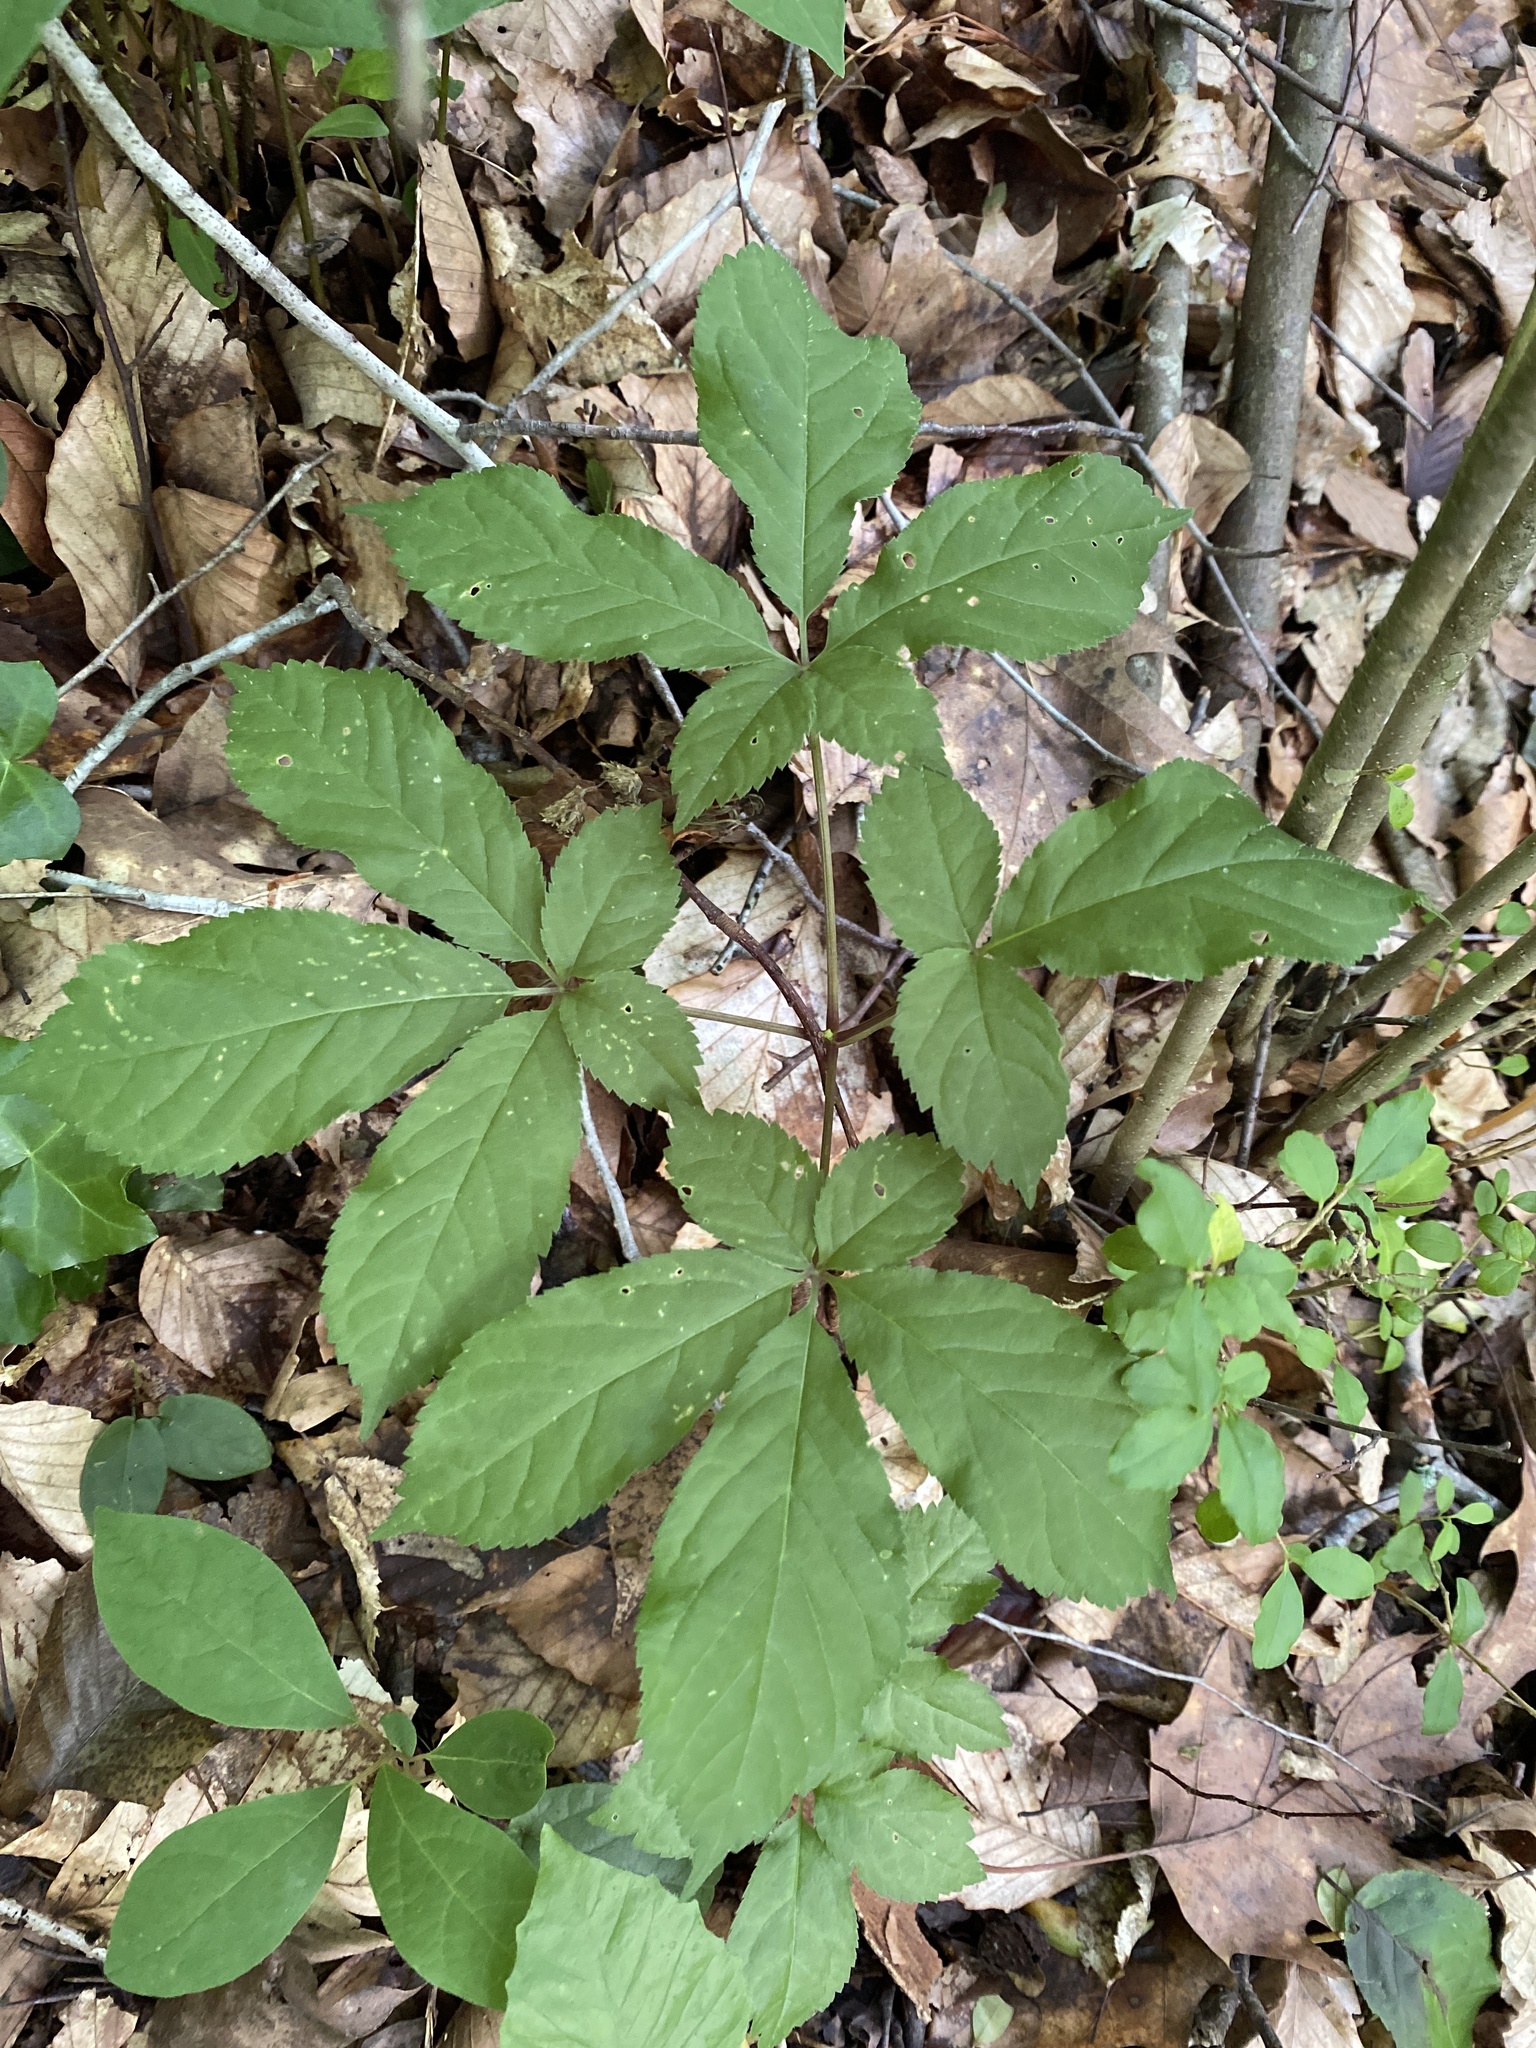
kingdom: Plantae
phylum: Tracheophyta
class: Magnoliopsida
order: Apiales
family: Araliaceae
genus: Panax
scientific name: Panax quinquefolius
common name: American ginseng
